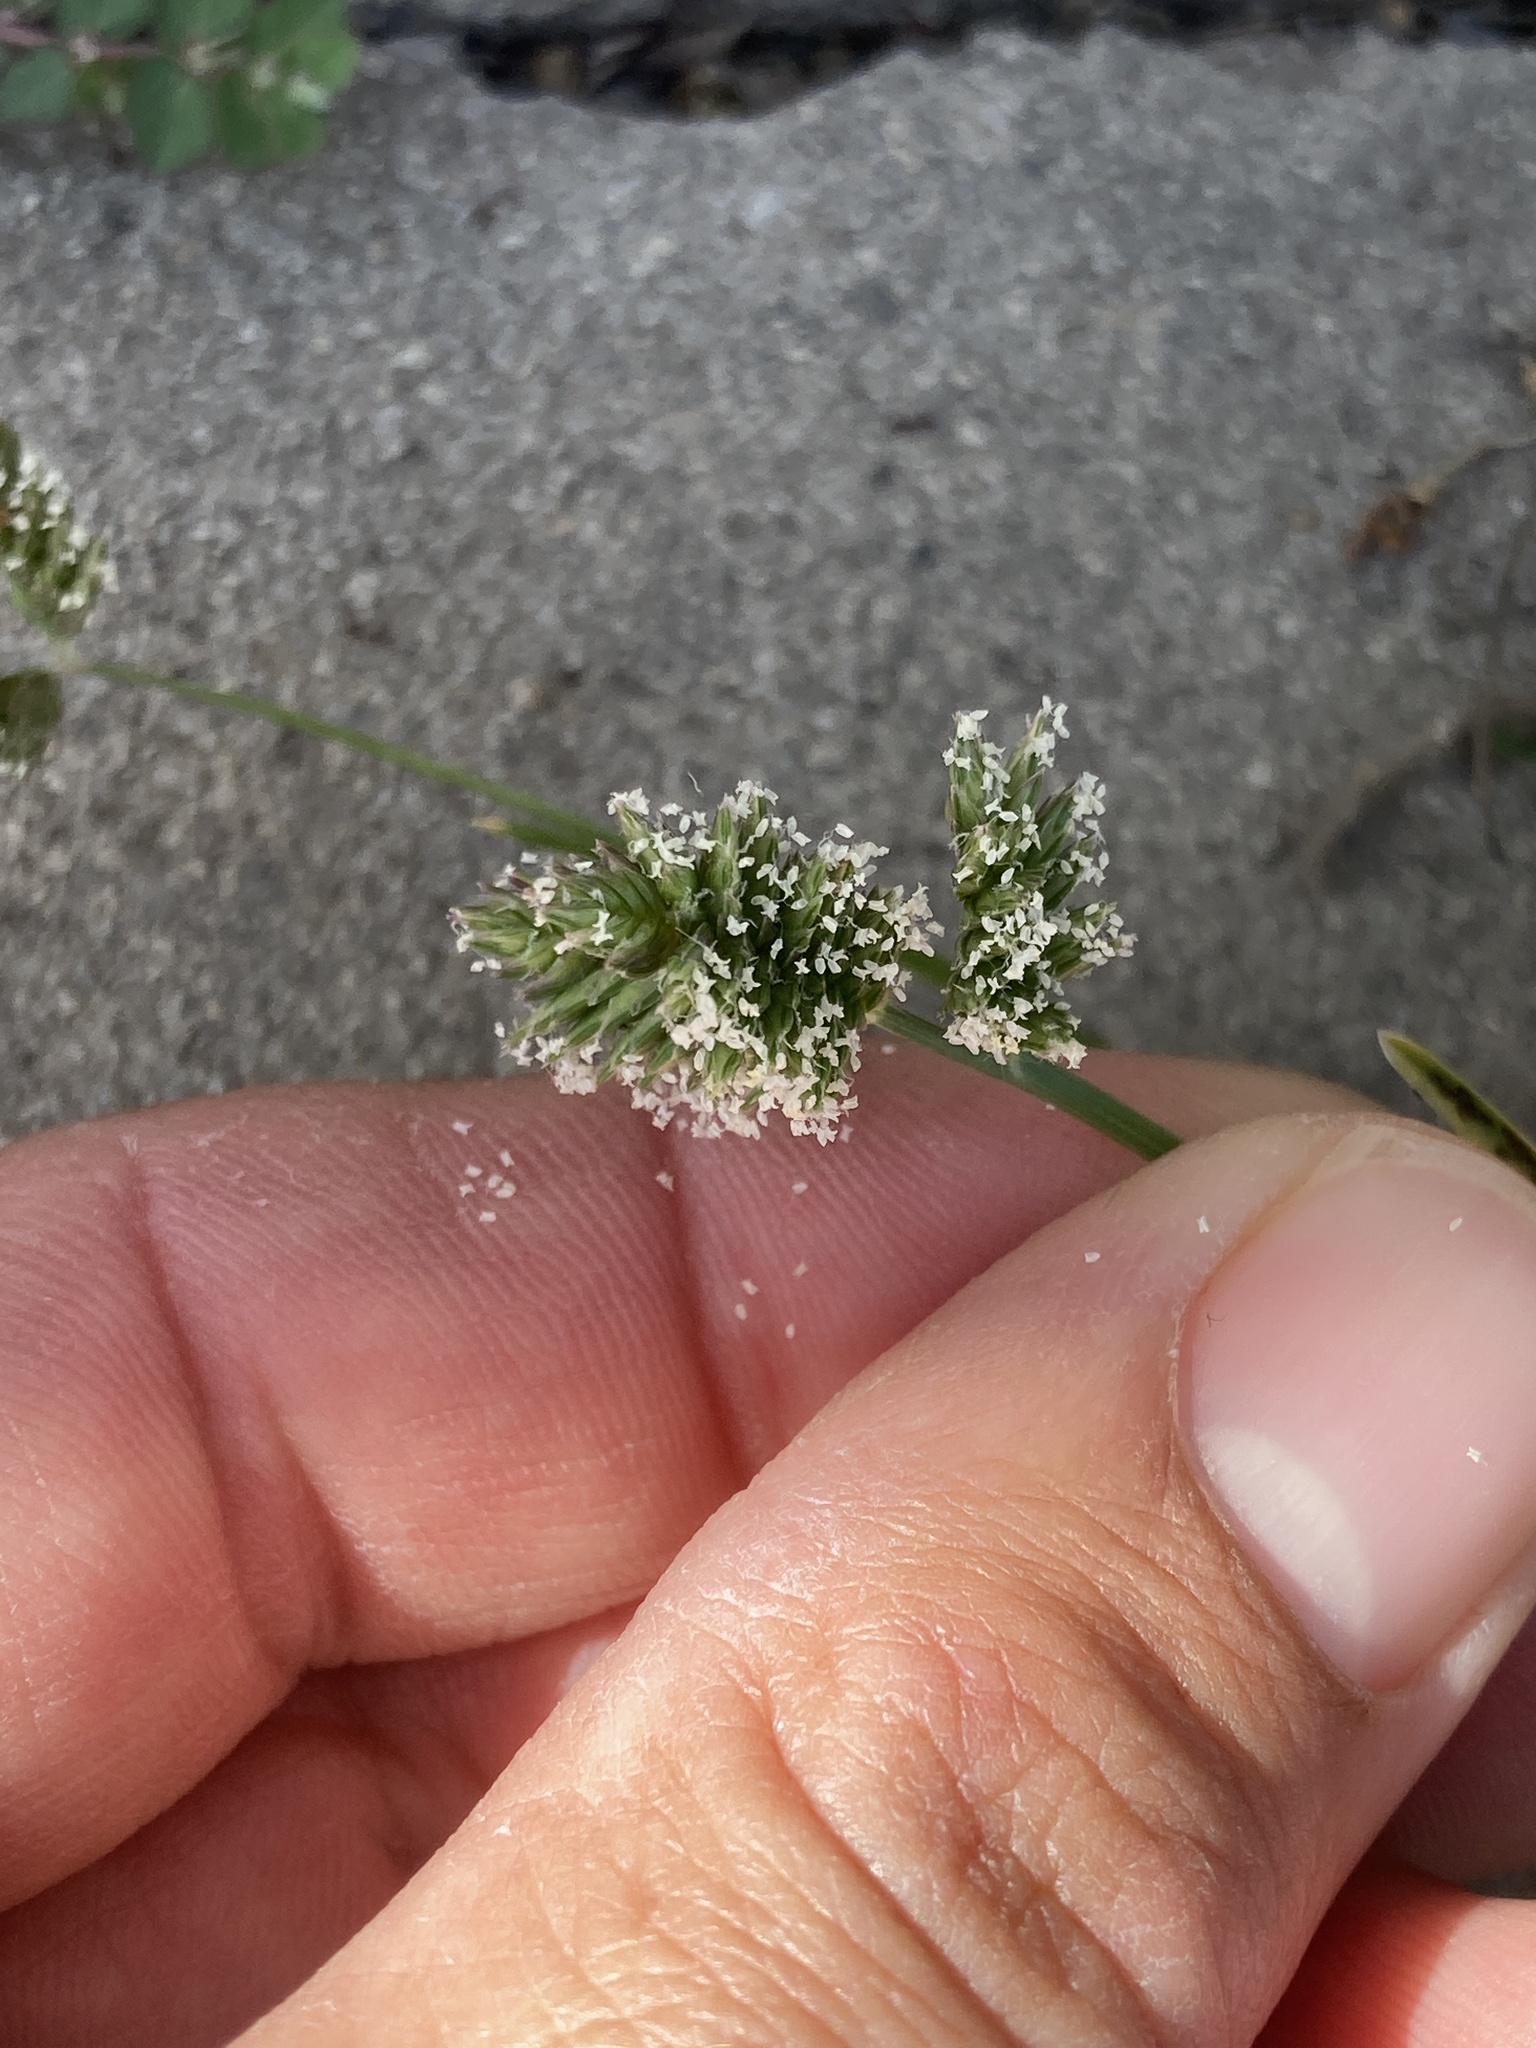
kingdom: Plantae
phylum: Tracheophyta
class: Liliopsida
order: Poales
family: Poaceae
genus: Eleusine
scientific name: Eleusine tristachya
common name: American yard-grass
